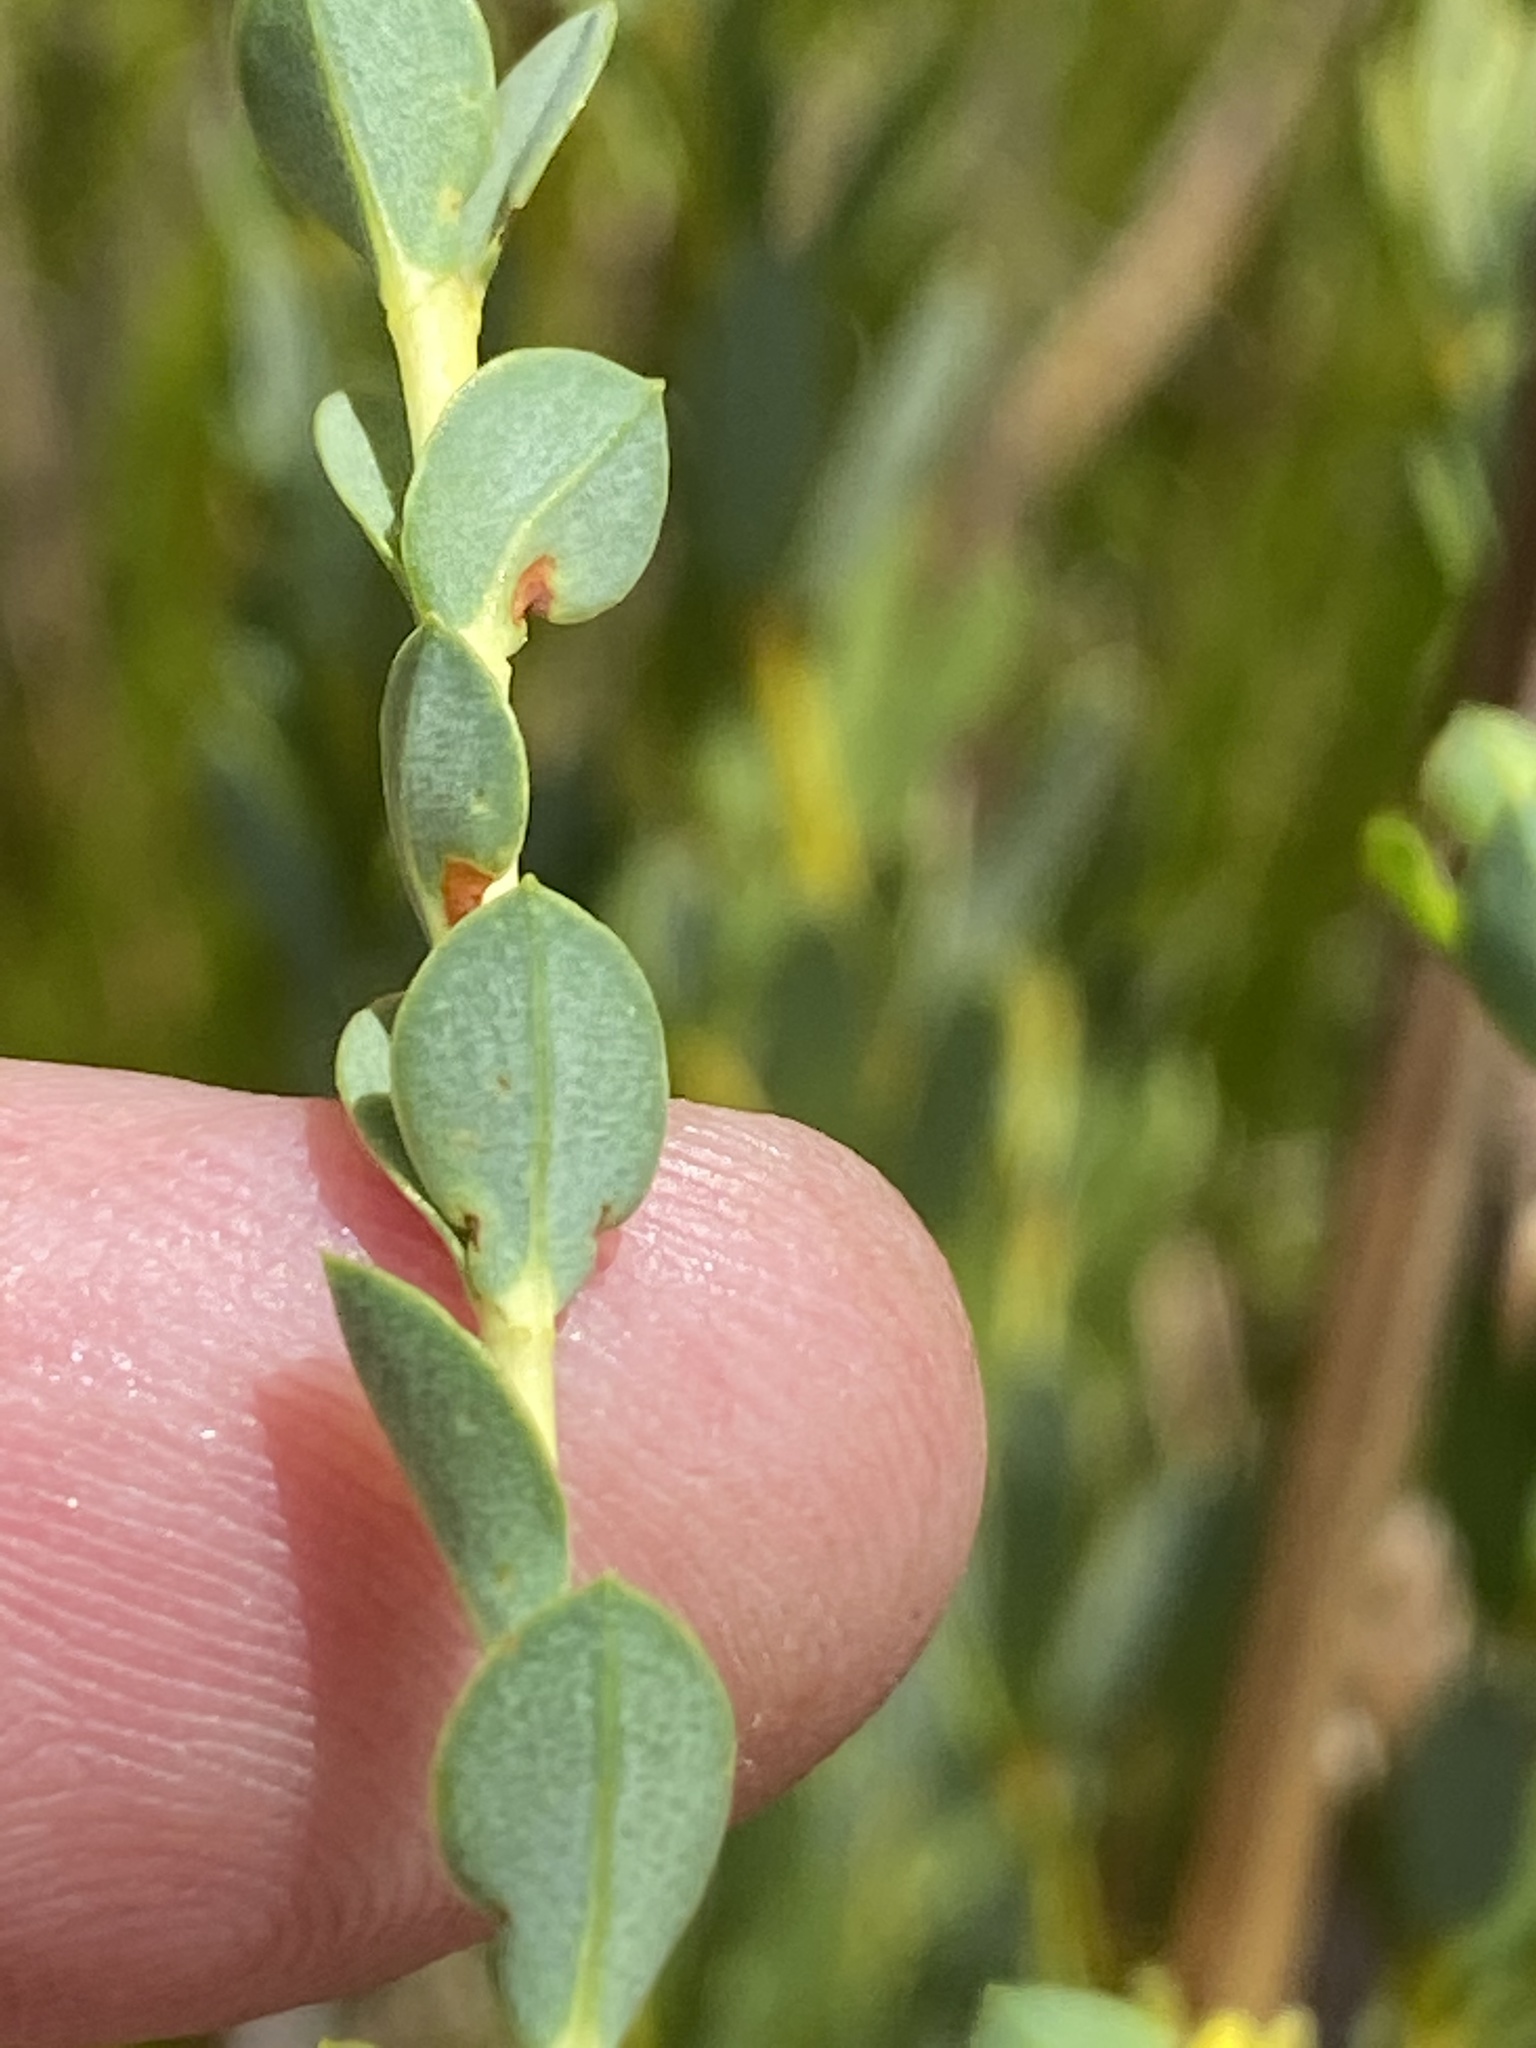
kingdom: Plantae
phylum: Tracheophyta
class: Magnoliopsida
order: Malvales
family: Thymelaeaceae
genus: Gnidia
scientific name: Gnidia oppositifolia
